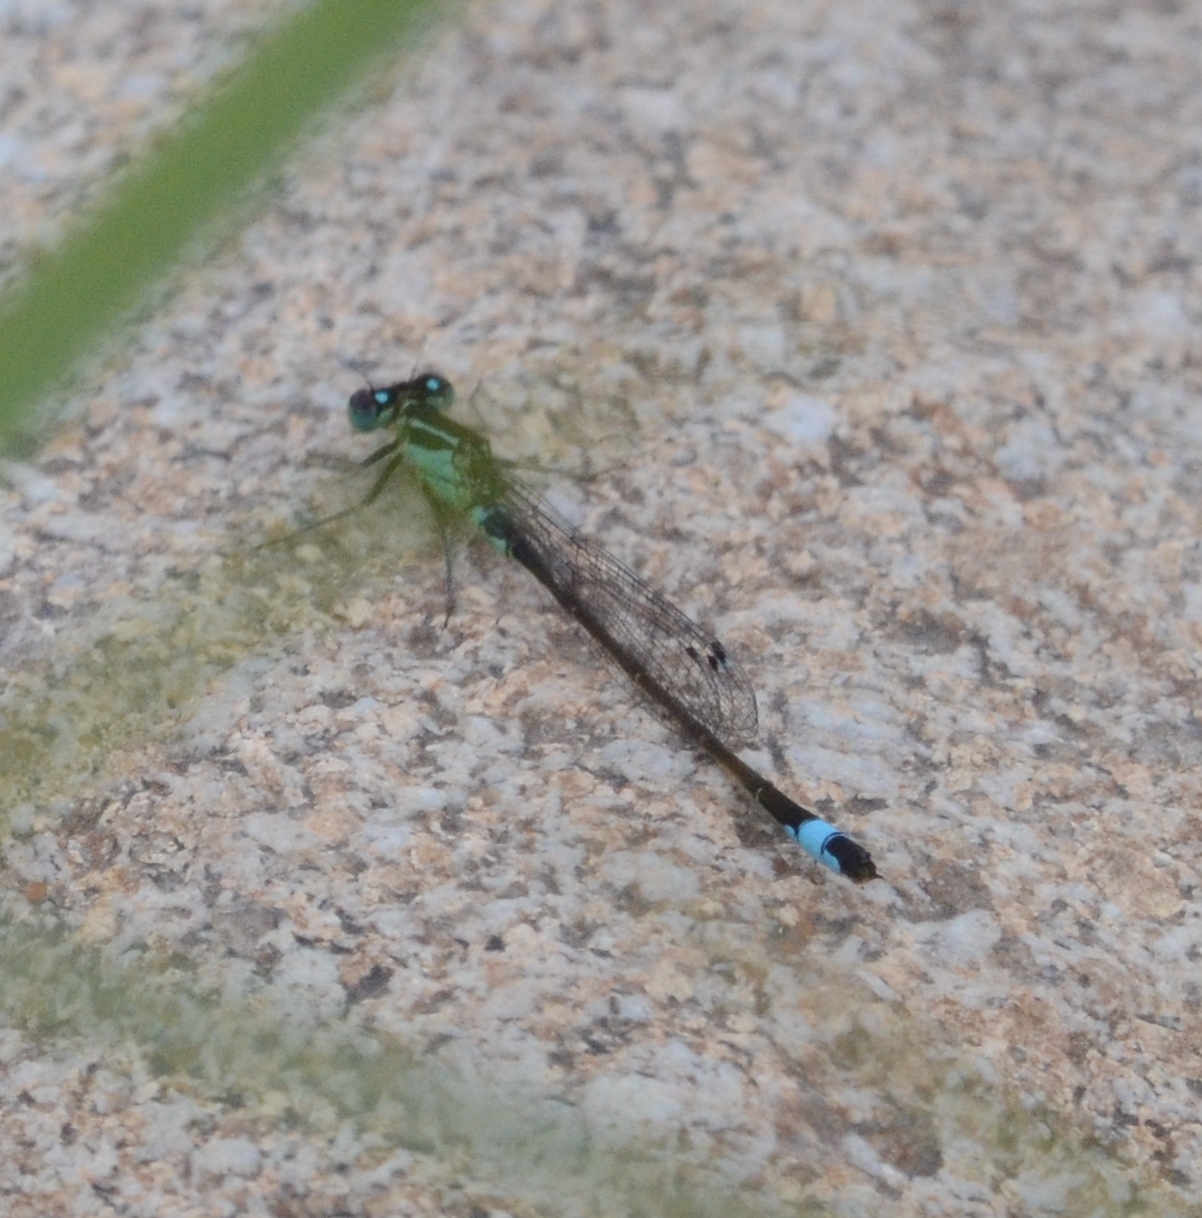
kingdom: Animalia
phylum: Arthropoda
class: Insecta
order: Odonata
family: Coenagrionidae
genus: Ischnura
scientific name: Ischnura elegans
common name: Blue-tailed damselfly
